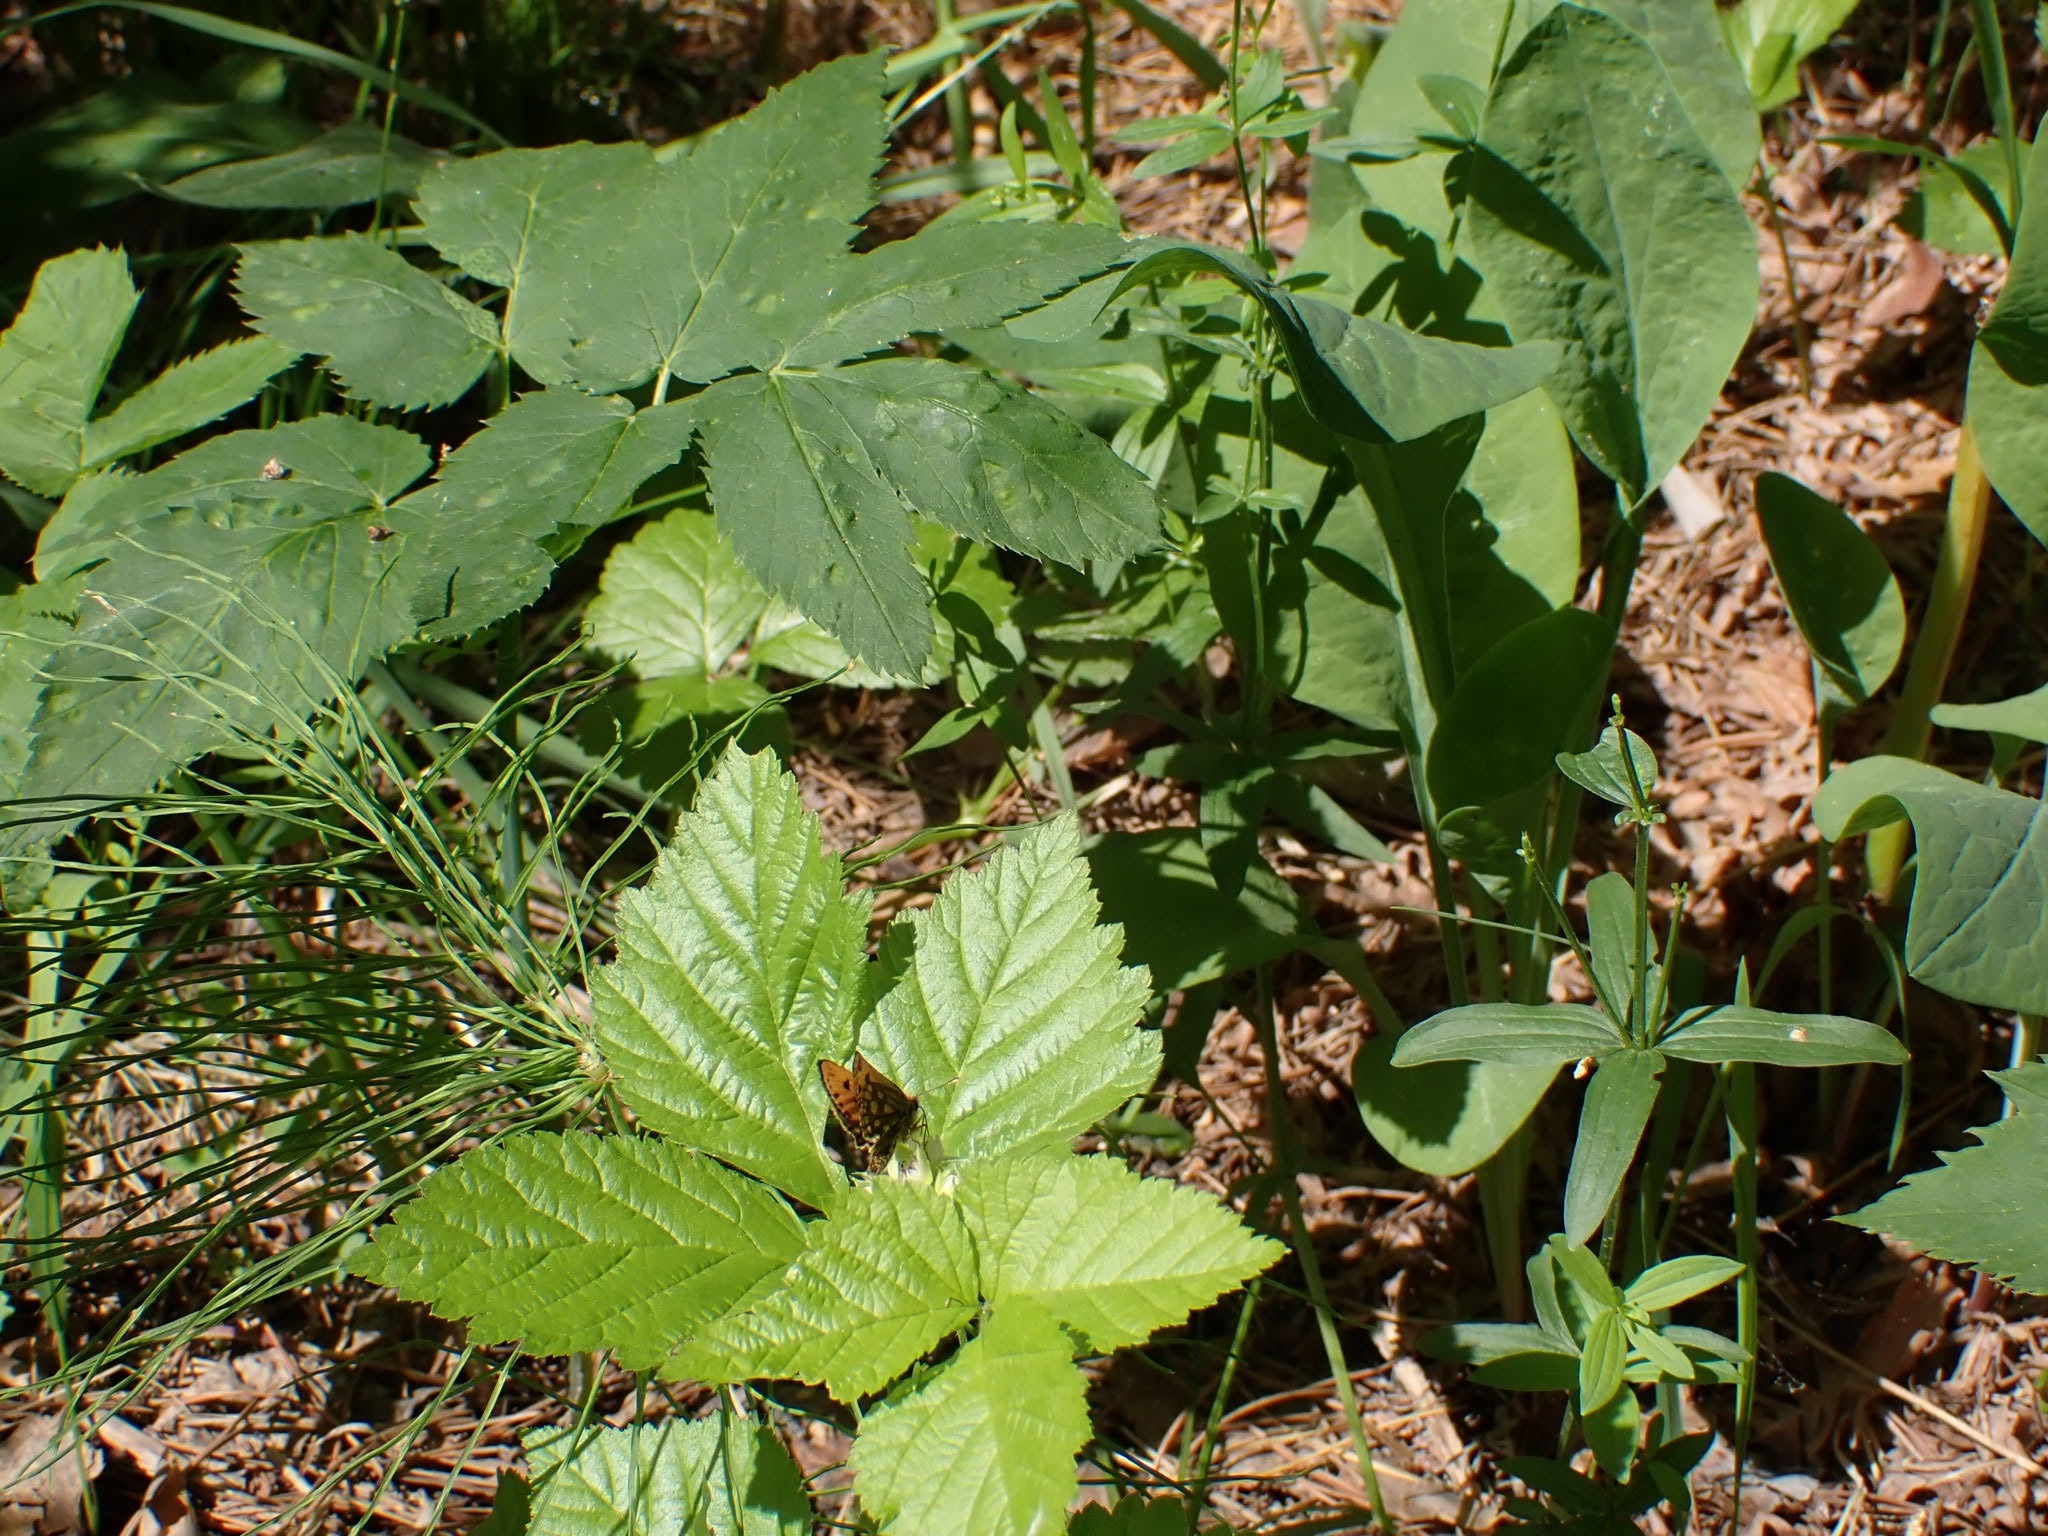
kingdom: Animalia
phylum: Arthropoda
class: Insecta
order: Lepidoptera
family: Hesperiidae
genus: Carterocephalus
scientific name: Carterocephalus silvicola
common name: Northern chequered skipper
